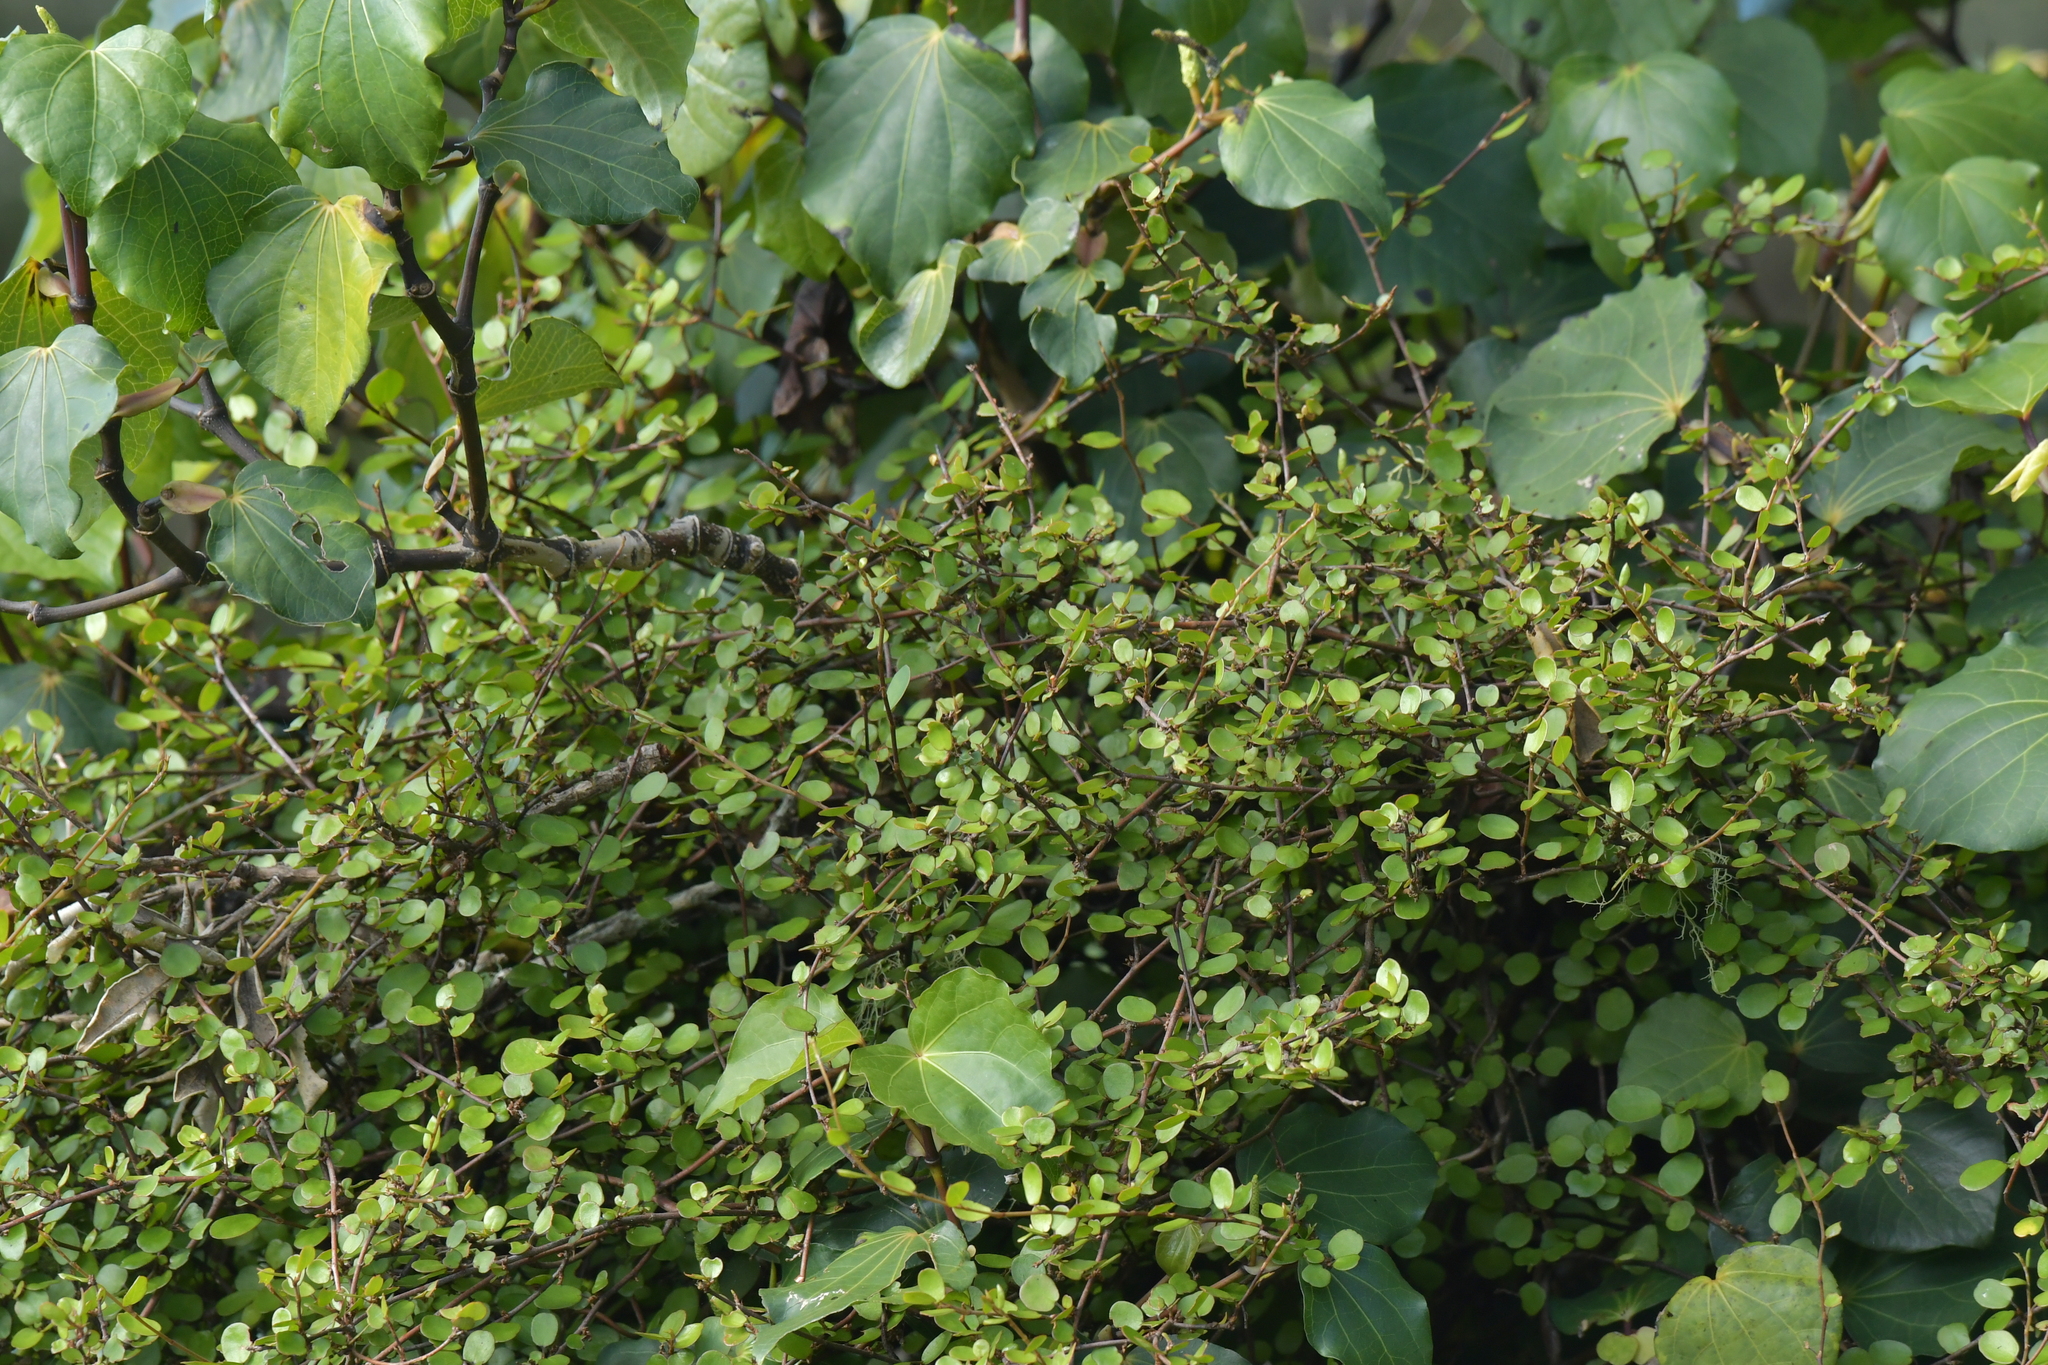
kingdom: Plantae
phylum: Tracheophyta
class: Magnoliopsida
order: Caryophyllales
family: Polygonaceae
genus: Muehlenbeckia
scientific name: Muehlenbeckia complexa
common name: Wireplant
